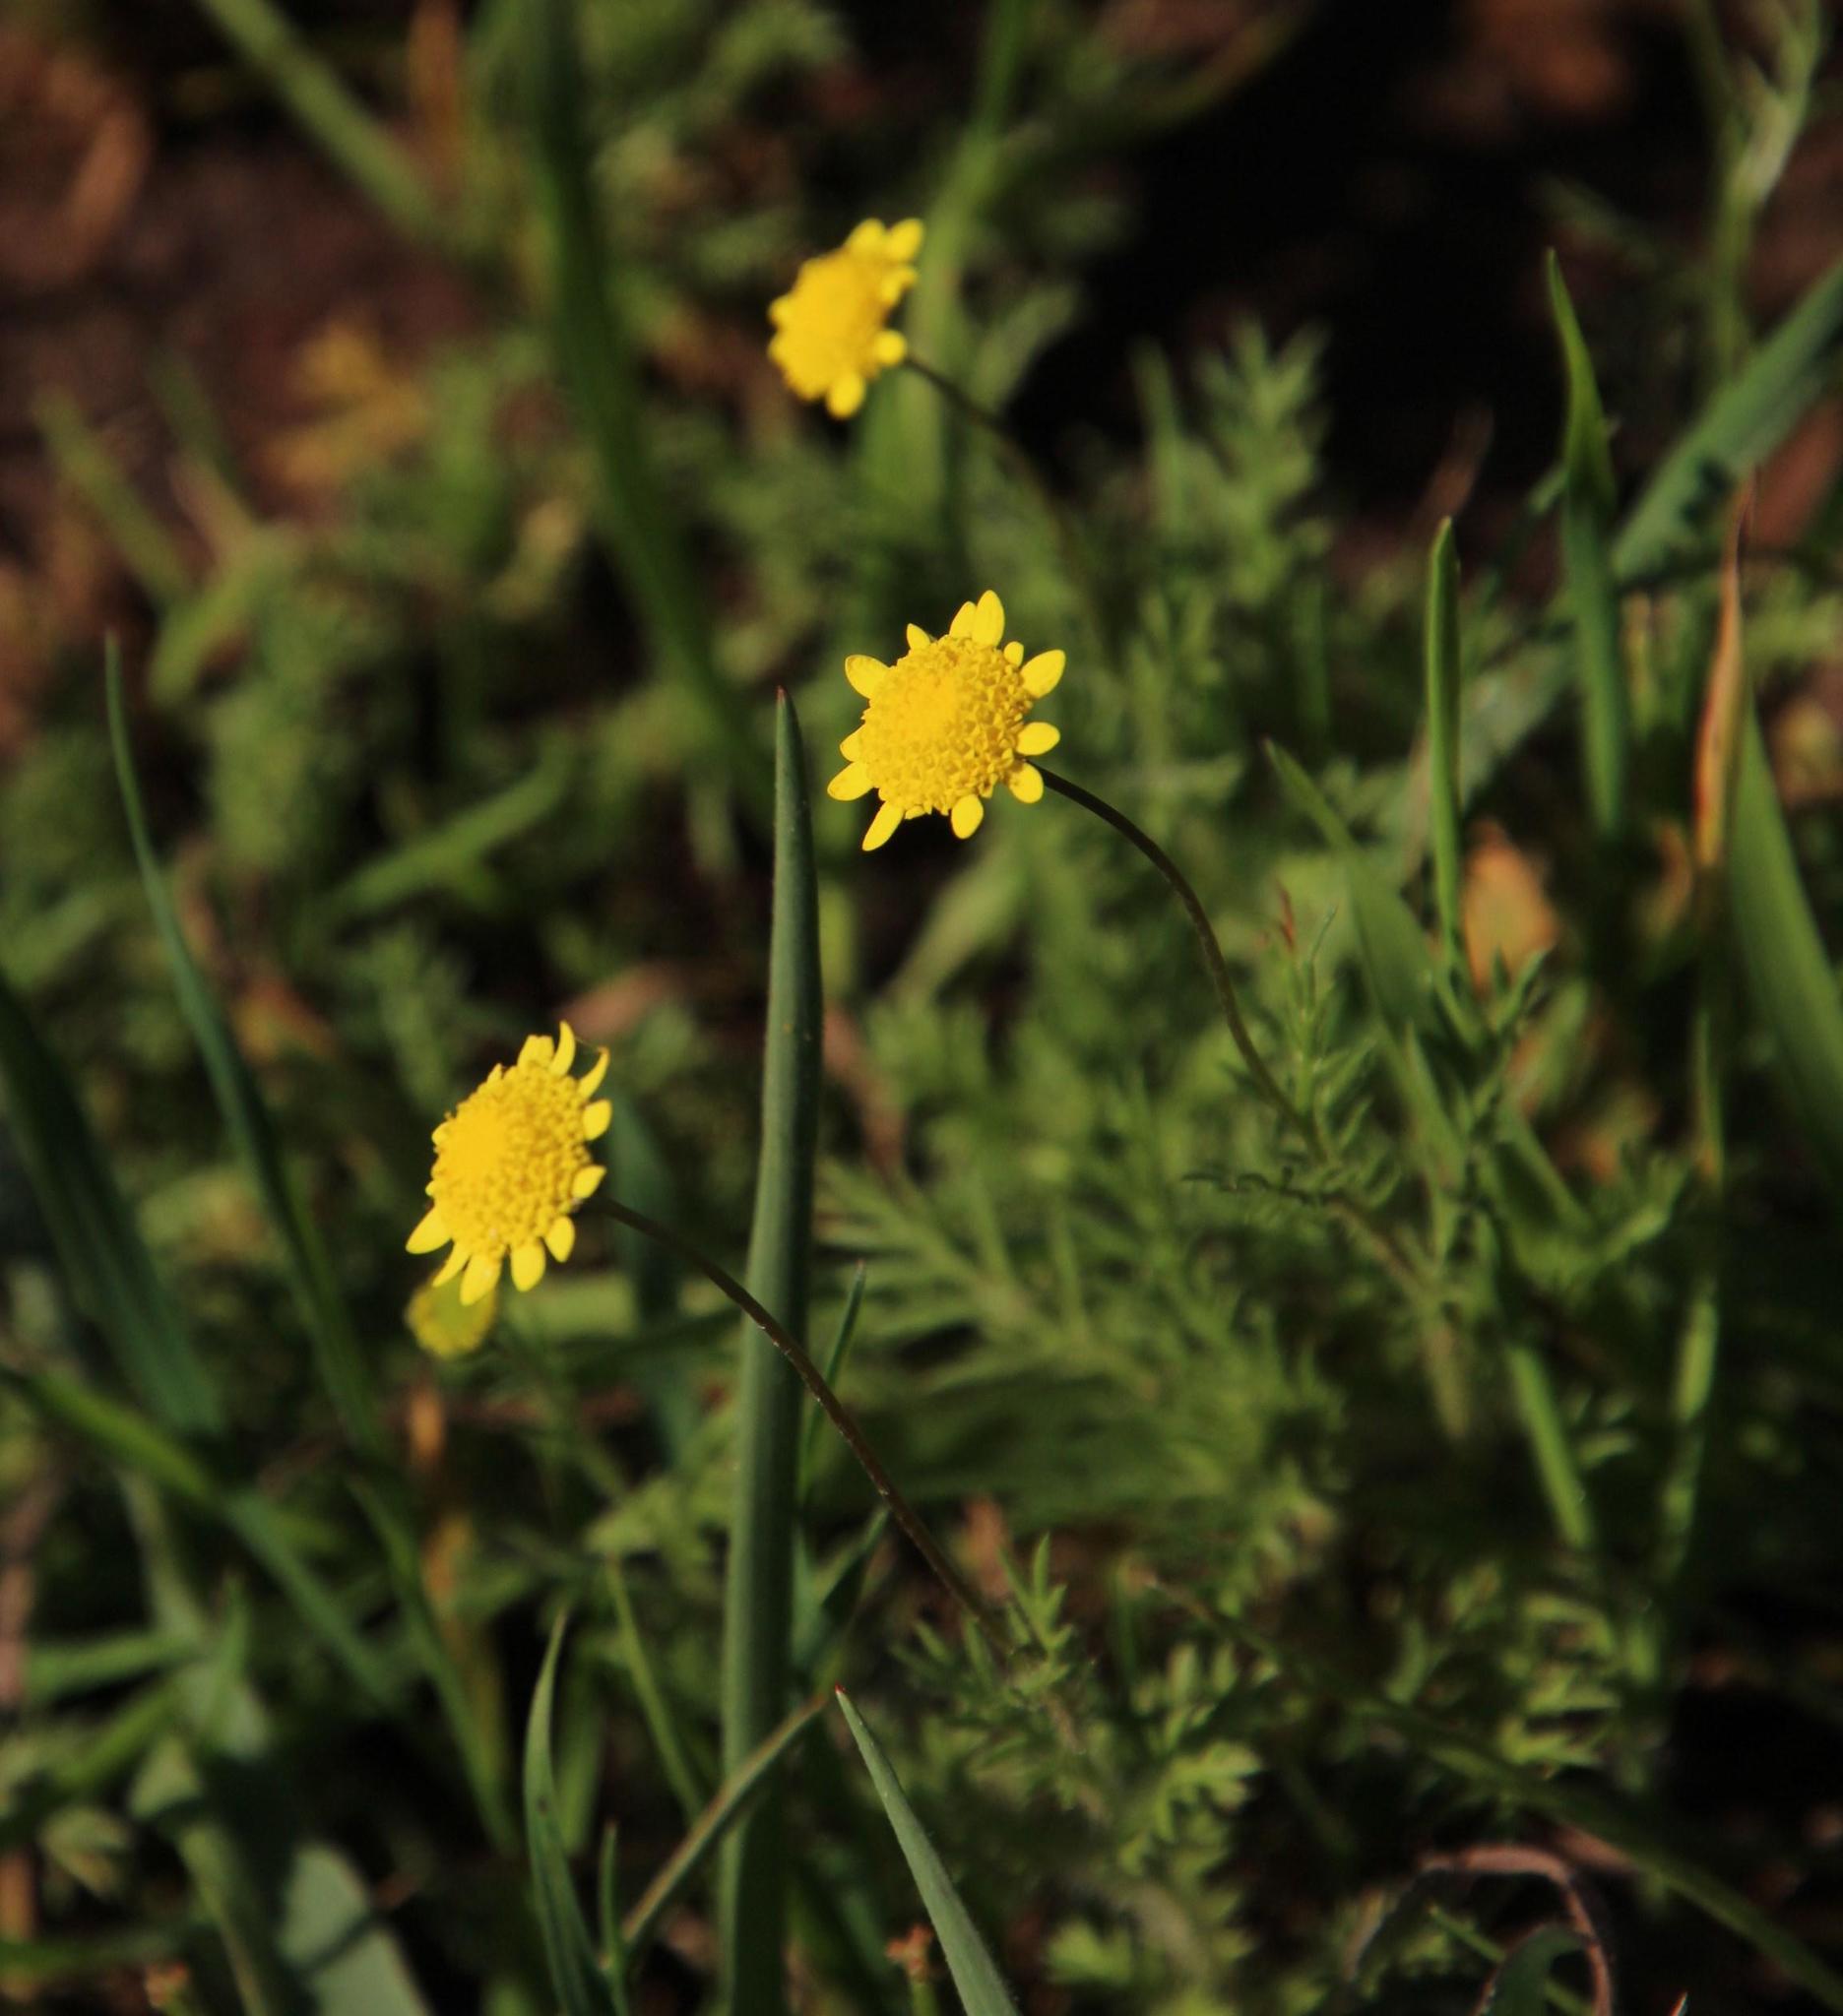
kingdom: Plantae
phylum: Tracheophyta
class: Magnoliopsida
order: Asterales
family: Asteraceae
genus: Cotula
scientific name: Cotula pruinosa
